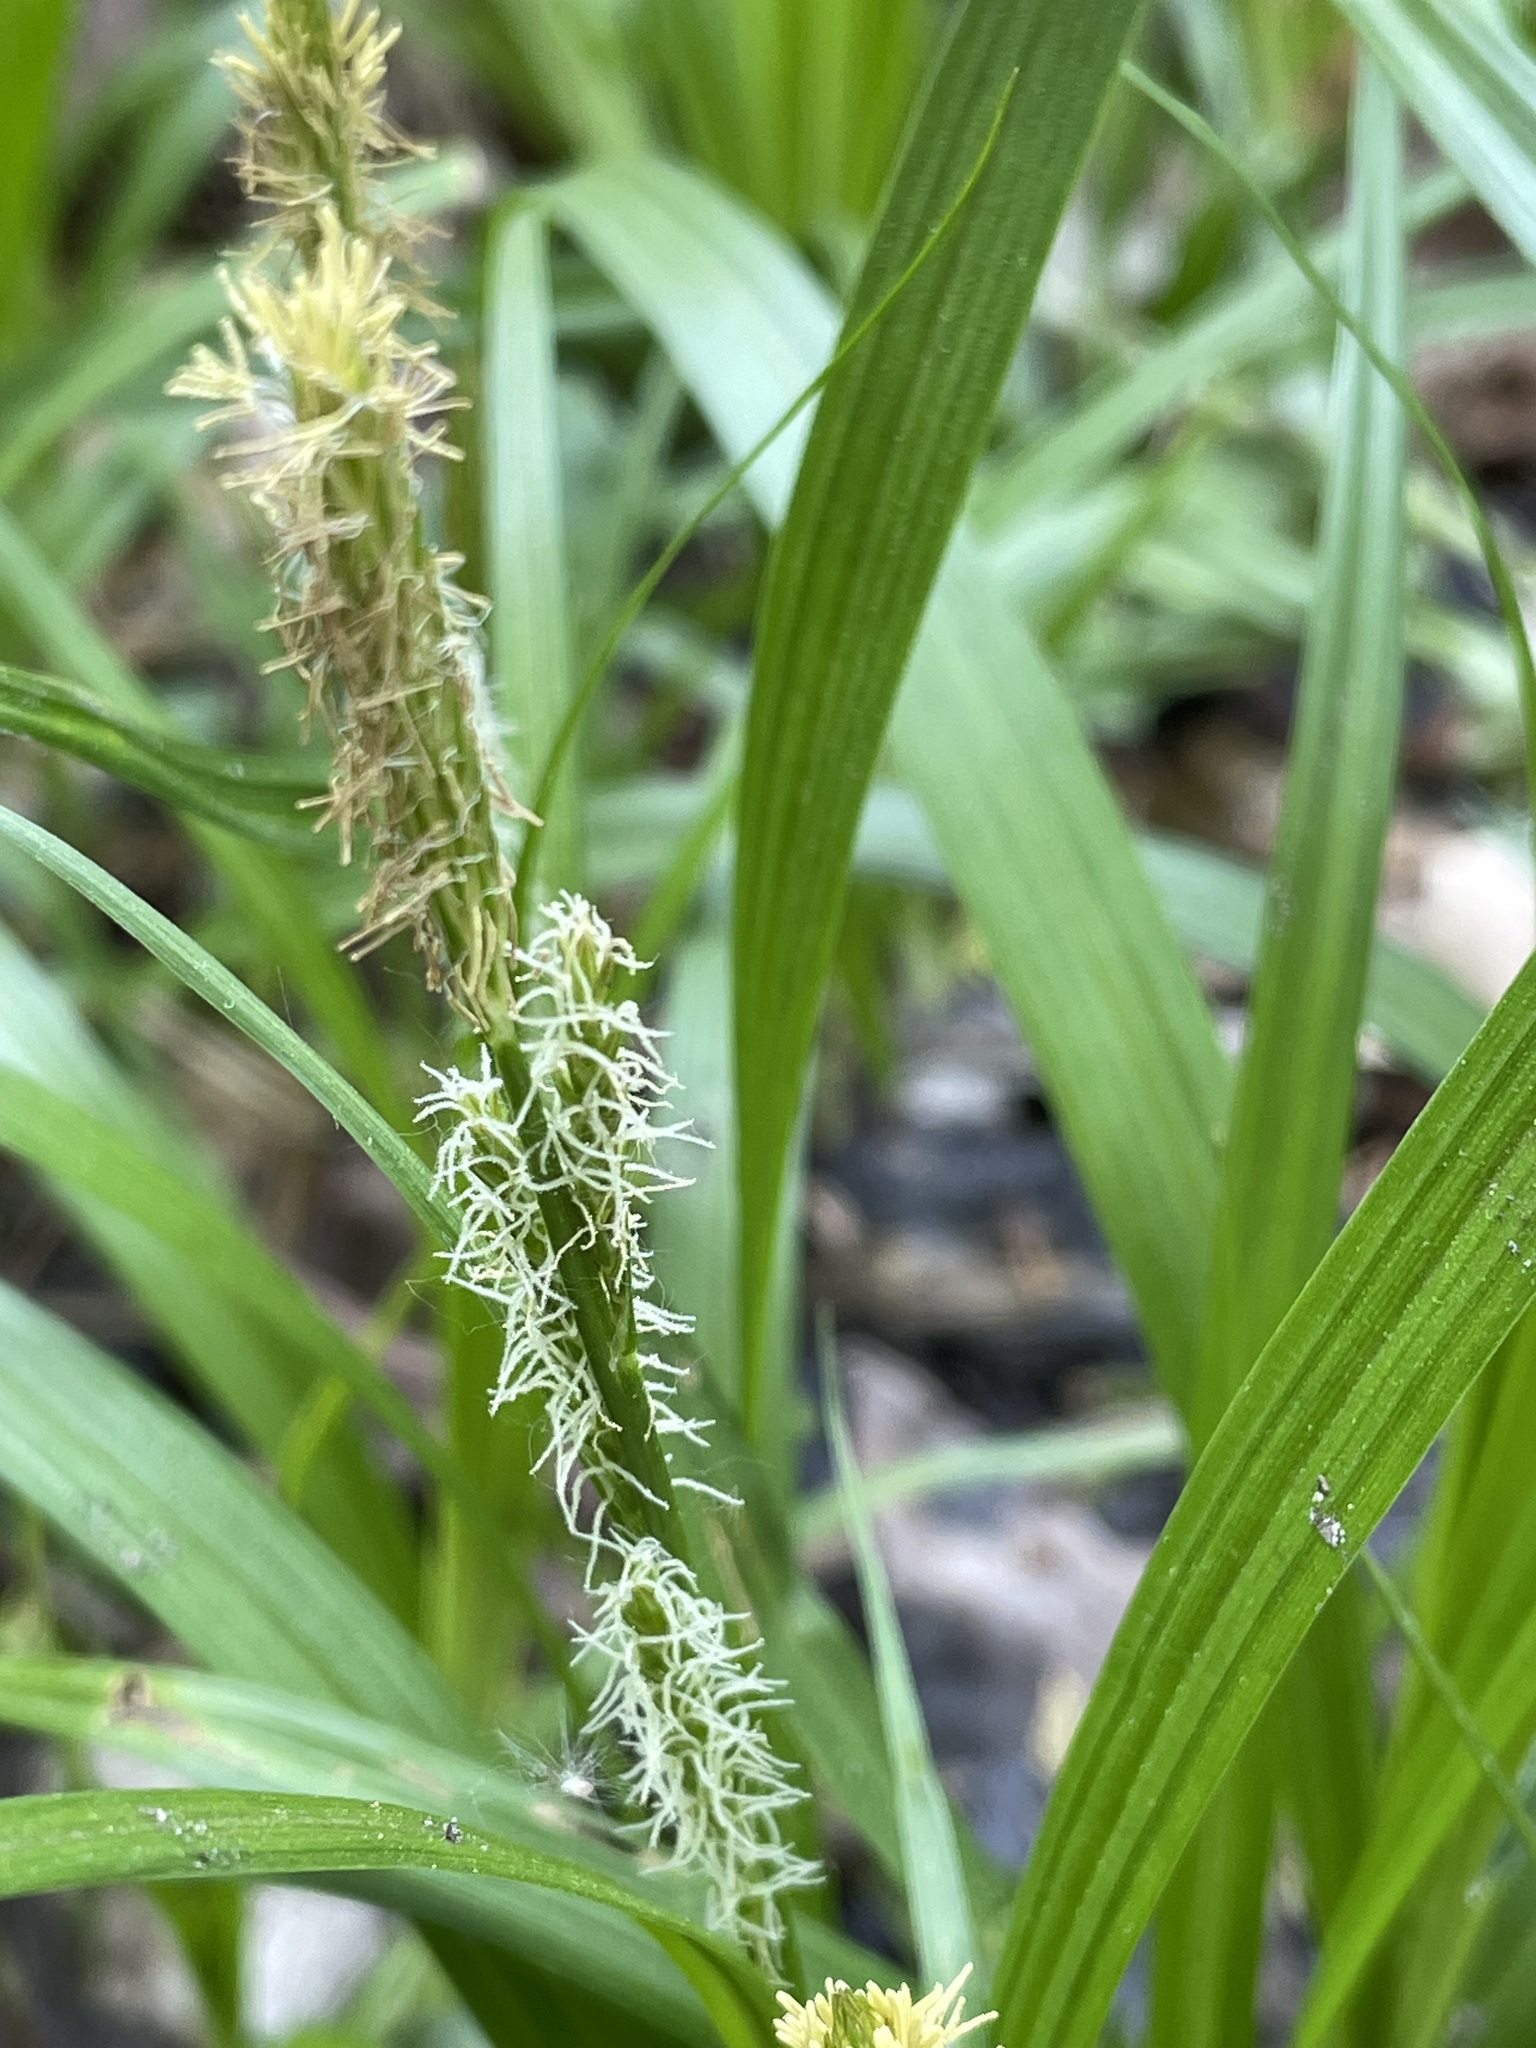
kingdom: Plantae
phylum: Tracheophyta
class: Liliopsida
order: Poales
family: Cyperaceae
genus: Carex
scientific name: Carex scabrata
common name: Eastern rough sedge
